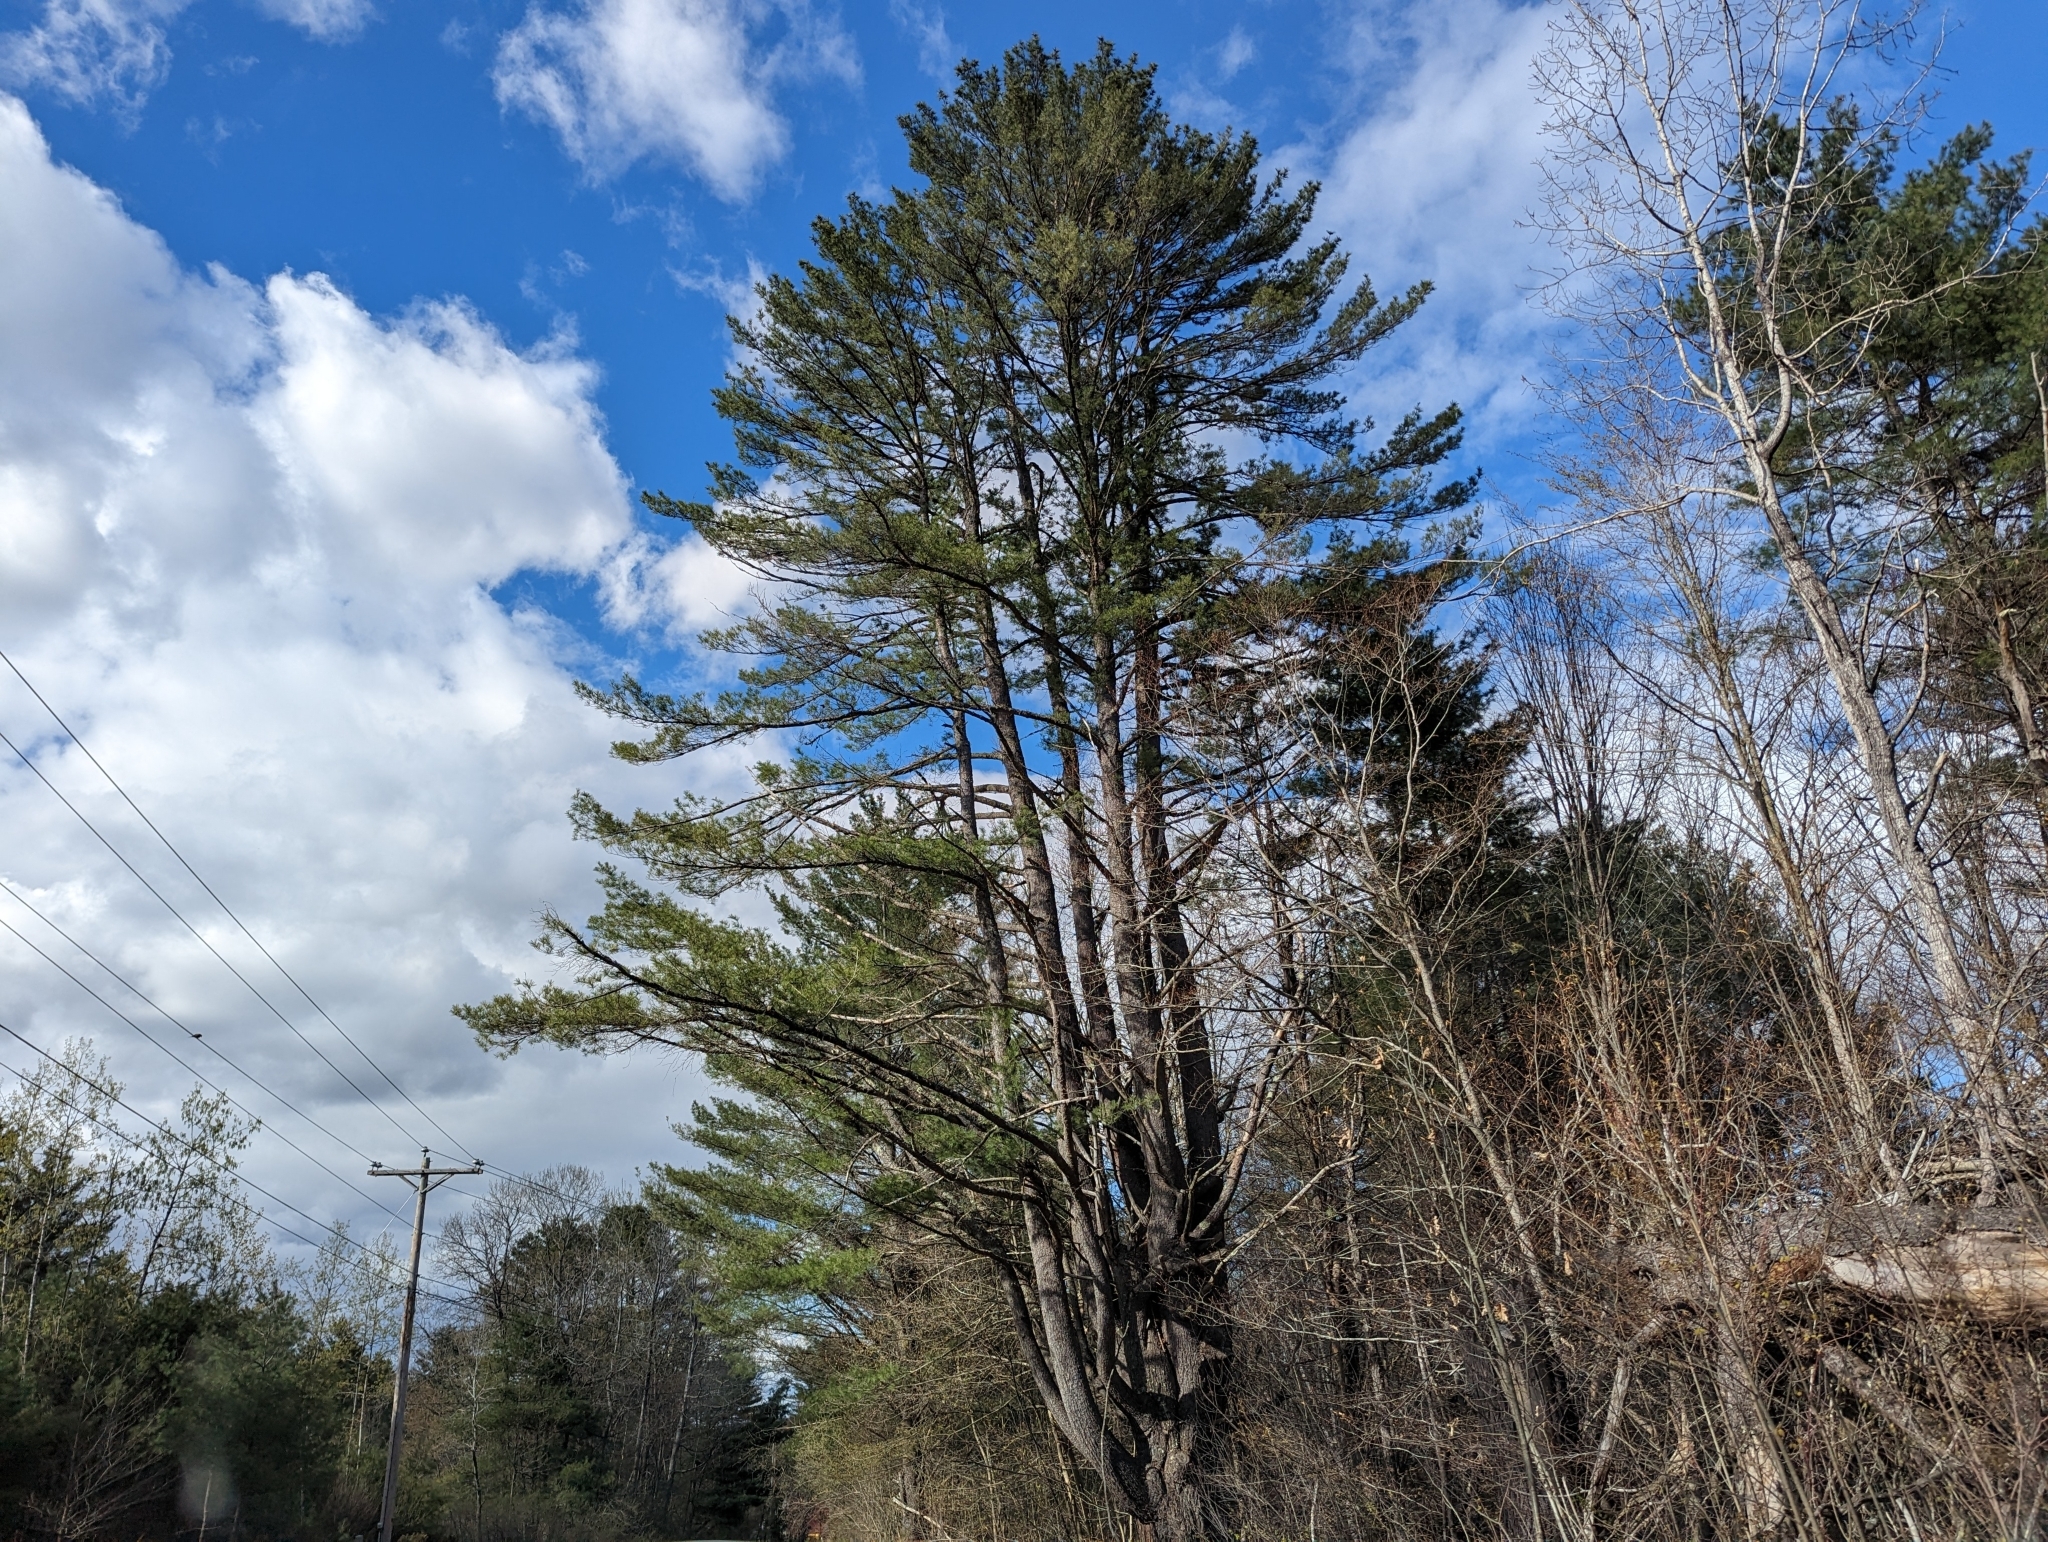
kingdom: Plantae
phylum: Tracheophyta
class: Pinopsida
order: Pinales
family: Pinaceae
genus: Pinus
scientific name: Pinus strobus
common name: Weymouth pine
